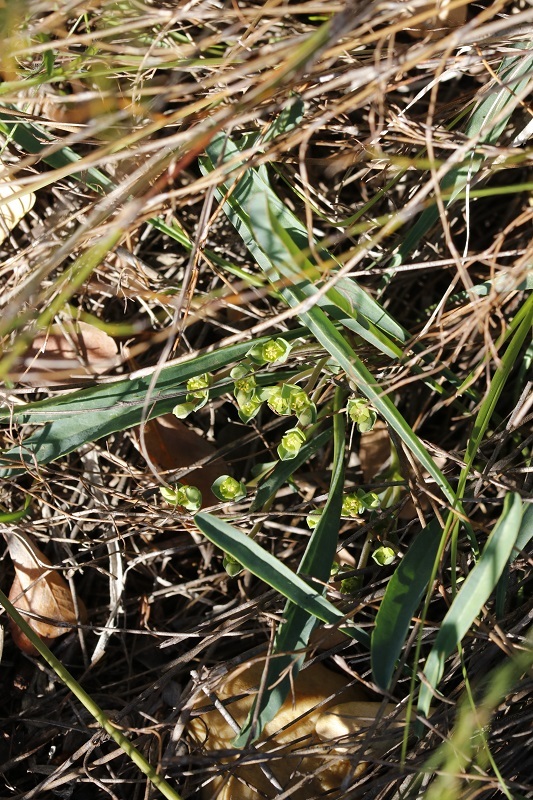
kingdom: Plantae
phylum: Tracheophyta
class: Magnoliopsida
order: Malpighiales
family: Euphorbiaceae
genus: Euphorbia
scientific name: Euphorbia silenifolia
